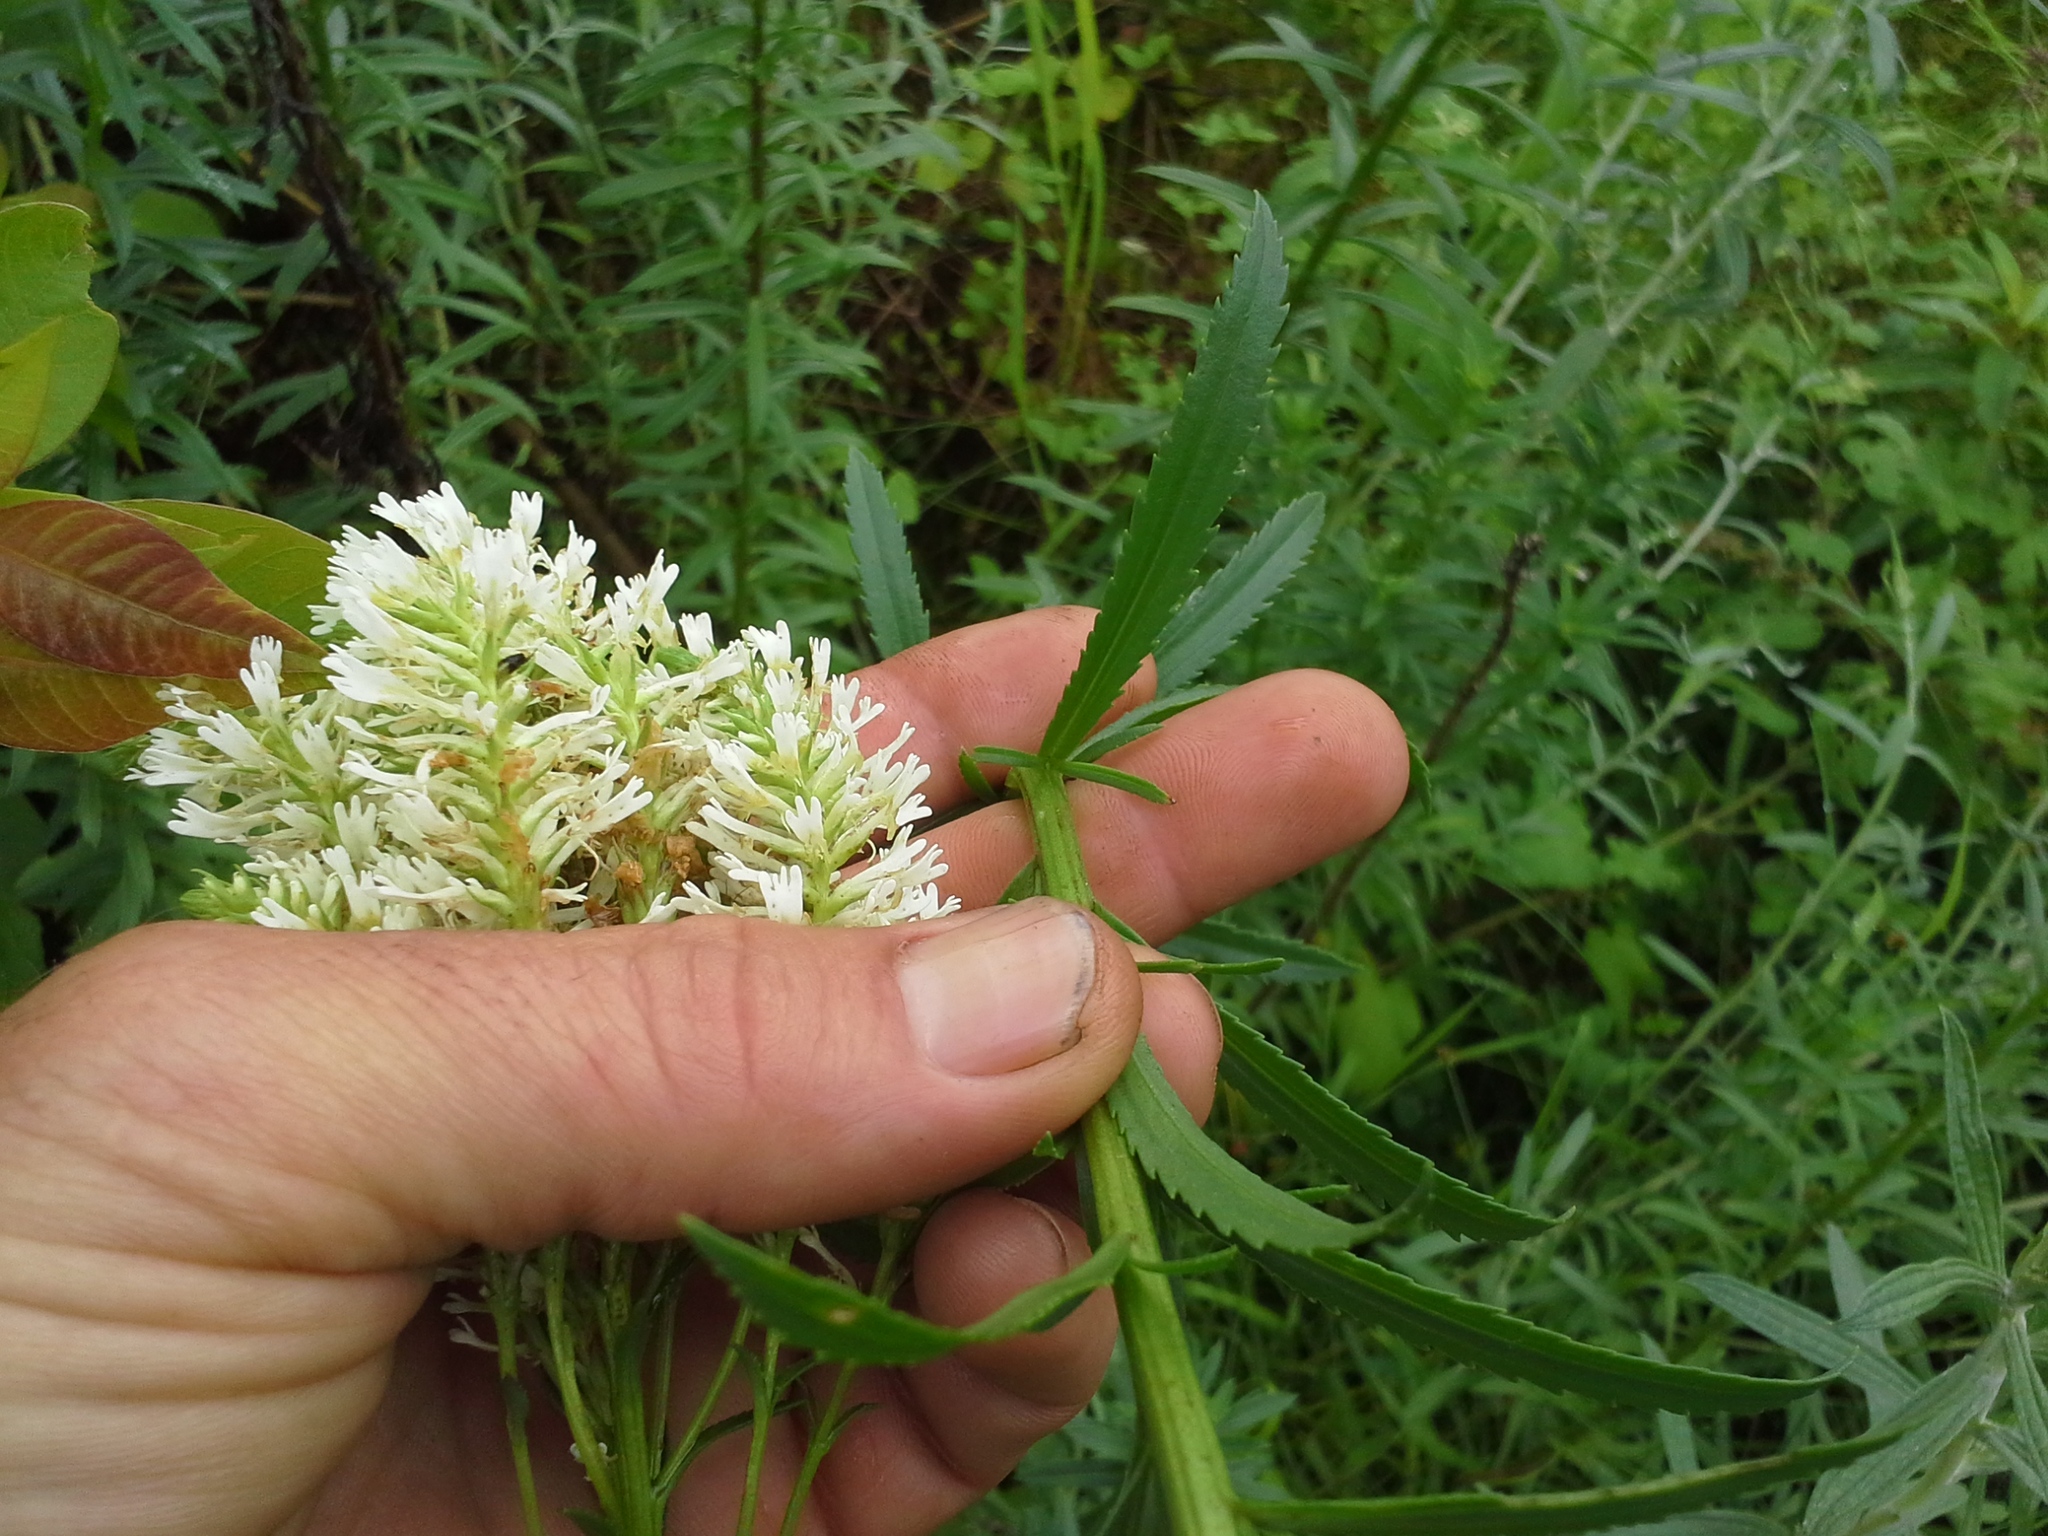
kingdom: Plantae
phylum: Tracheophyta
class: Magnoliopsida
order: Lamiales
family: Scrophulariaceae
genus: Hebenstretia
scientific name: Hebenstretia oatesii
